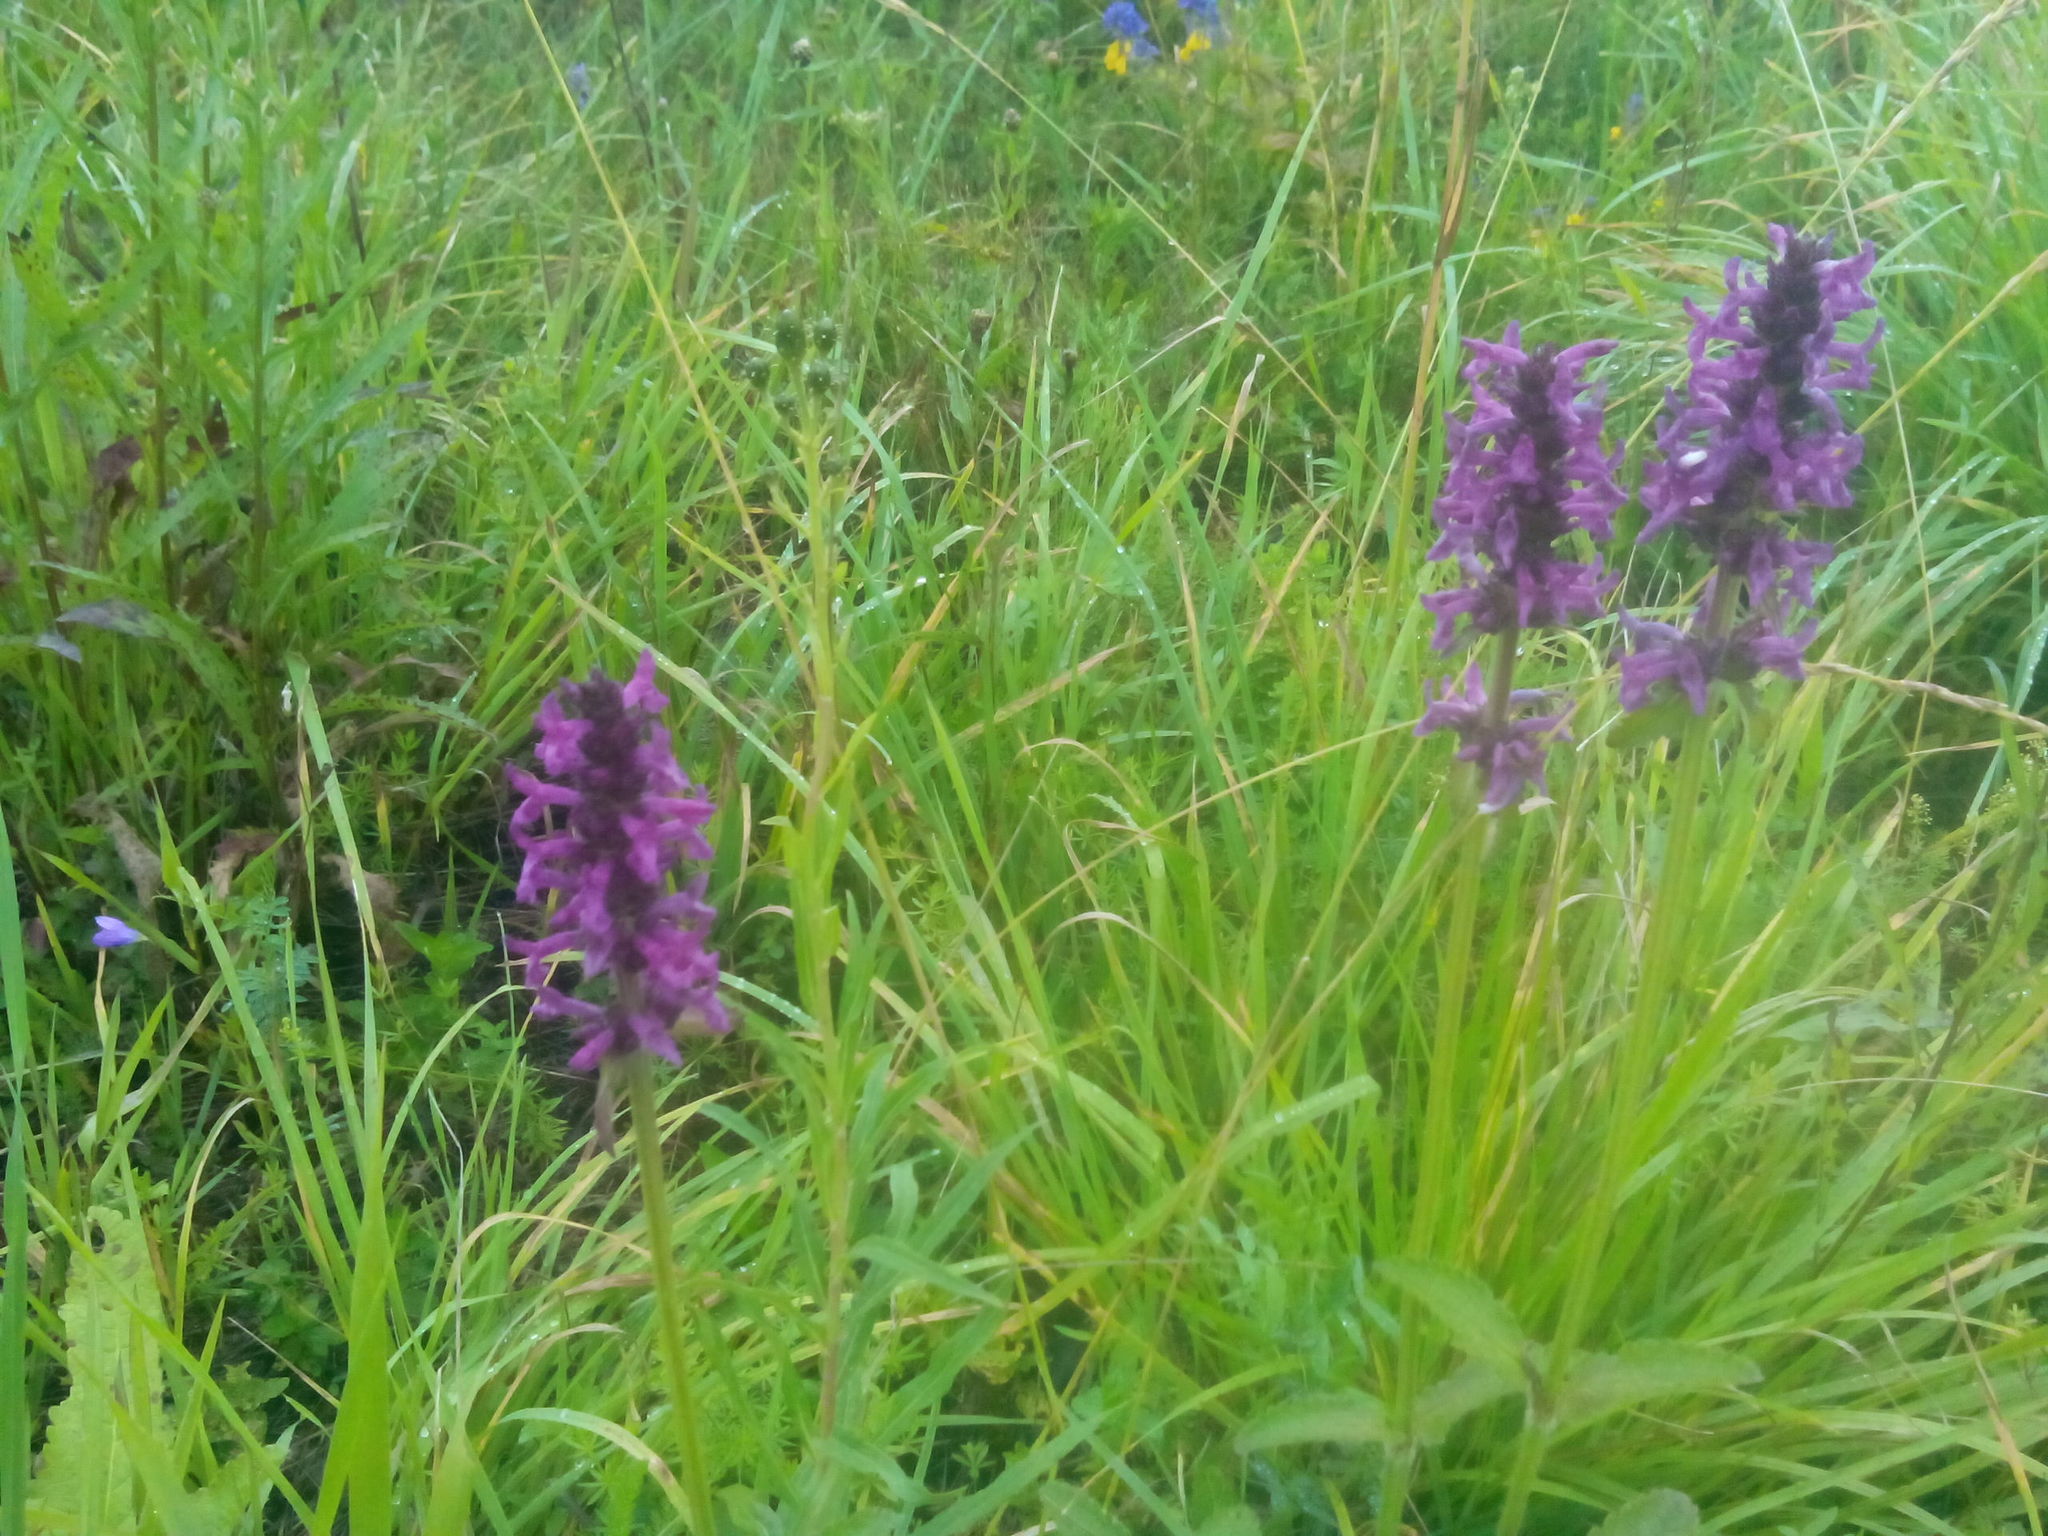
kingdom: Plantae
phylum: Tracheophyta
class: Magnoliopsida
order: Lamiales
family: Lamiaceae
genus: Betonica
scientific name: Betonica officinalis
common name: Bishop's-wort
